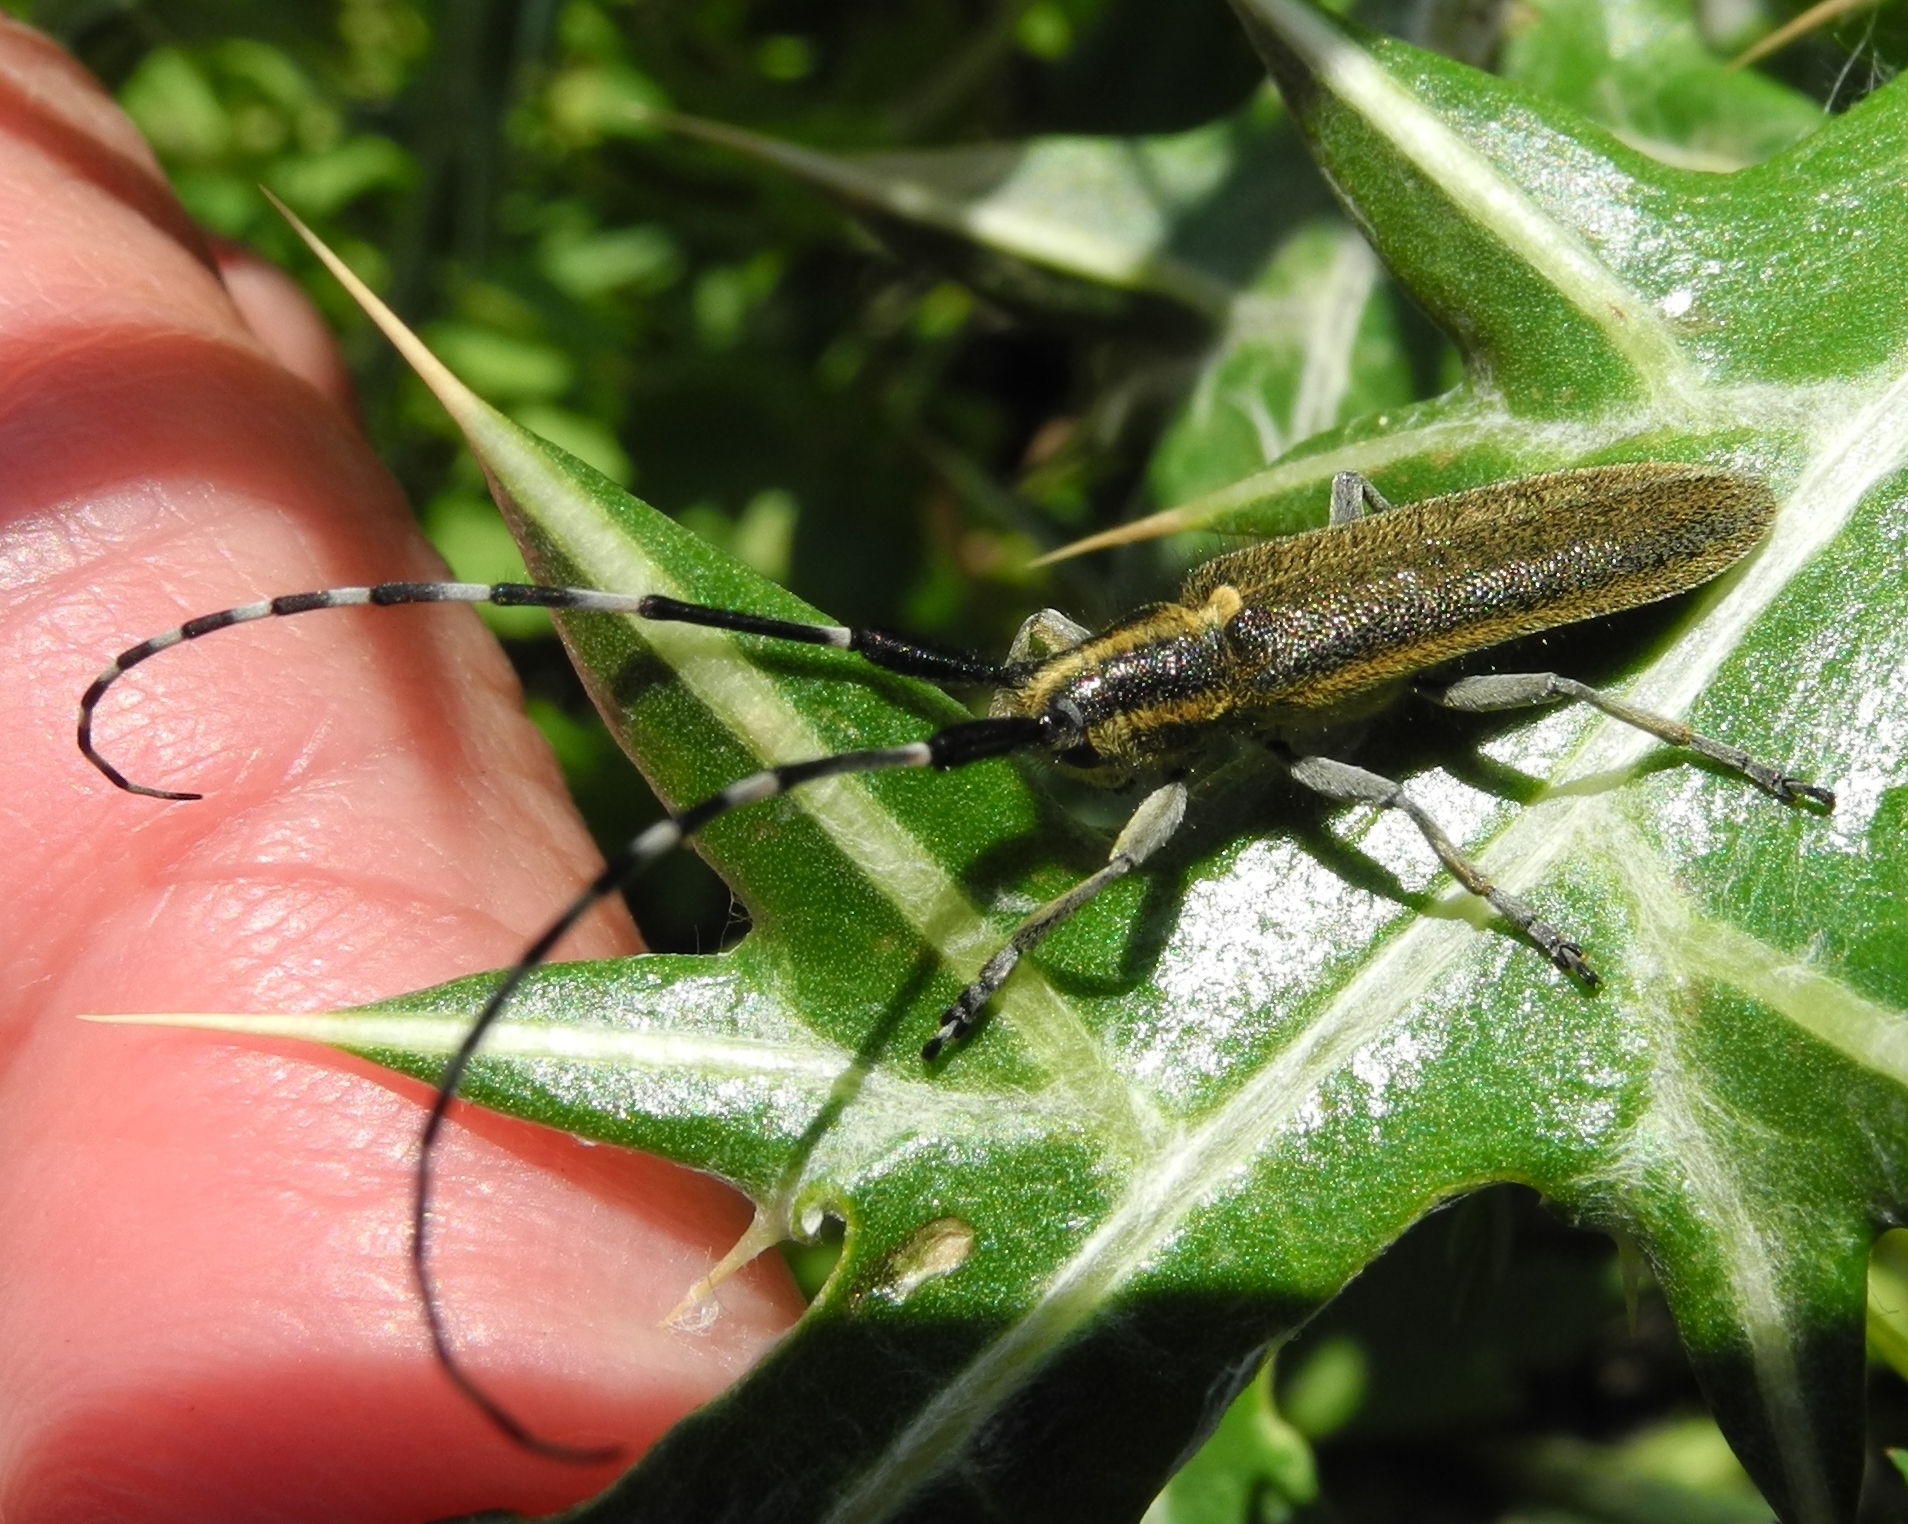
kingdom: Animalia
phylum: Arthropoda
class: Insecta
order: Coleoptera
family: Cerambycidae
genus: Agapanthia
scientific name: Agapanthia cynarae
